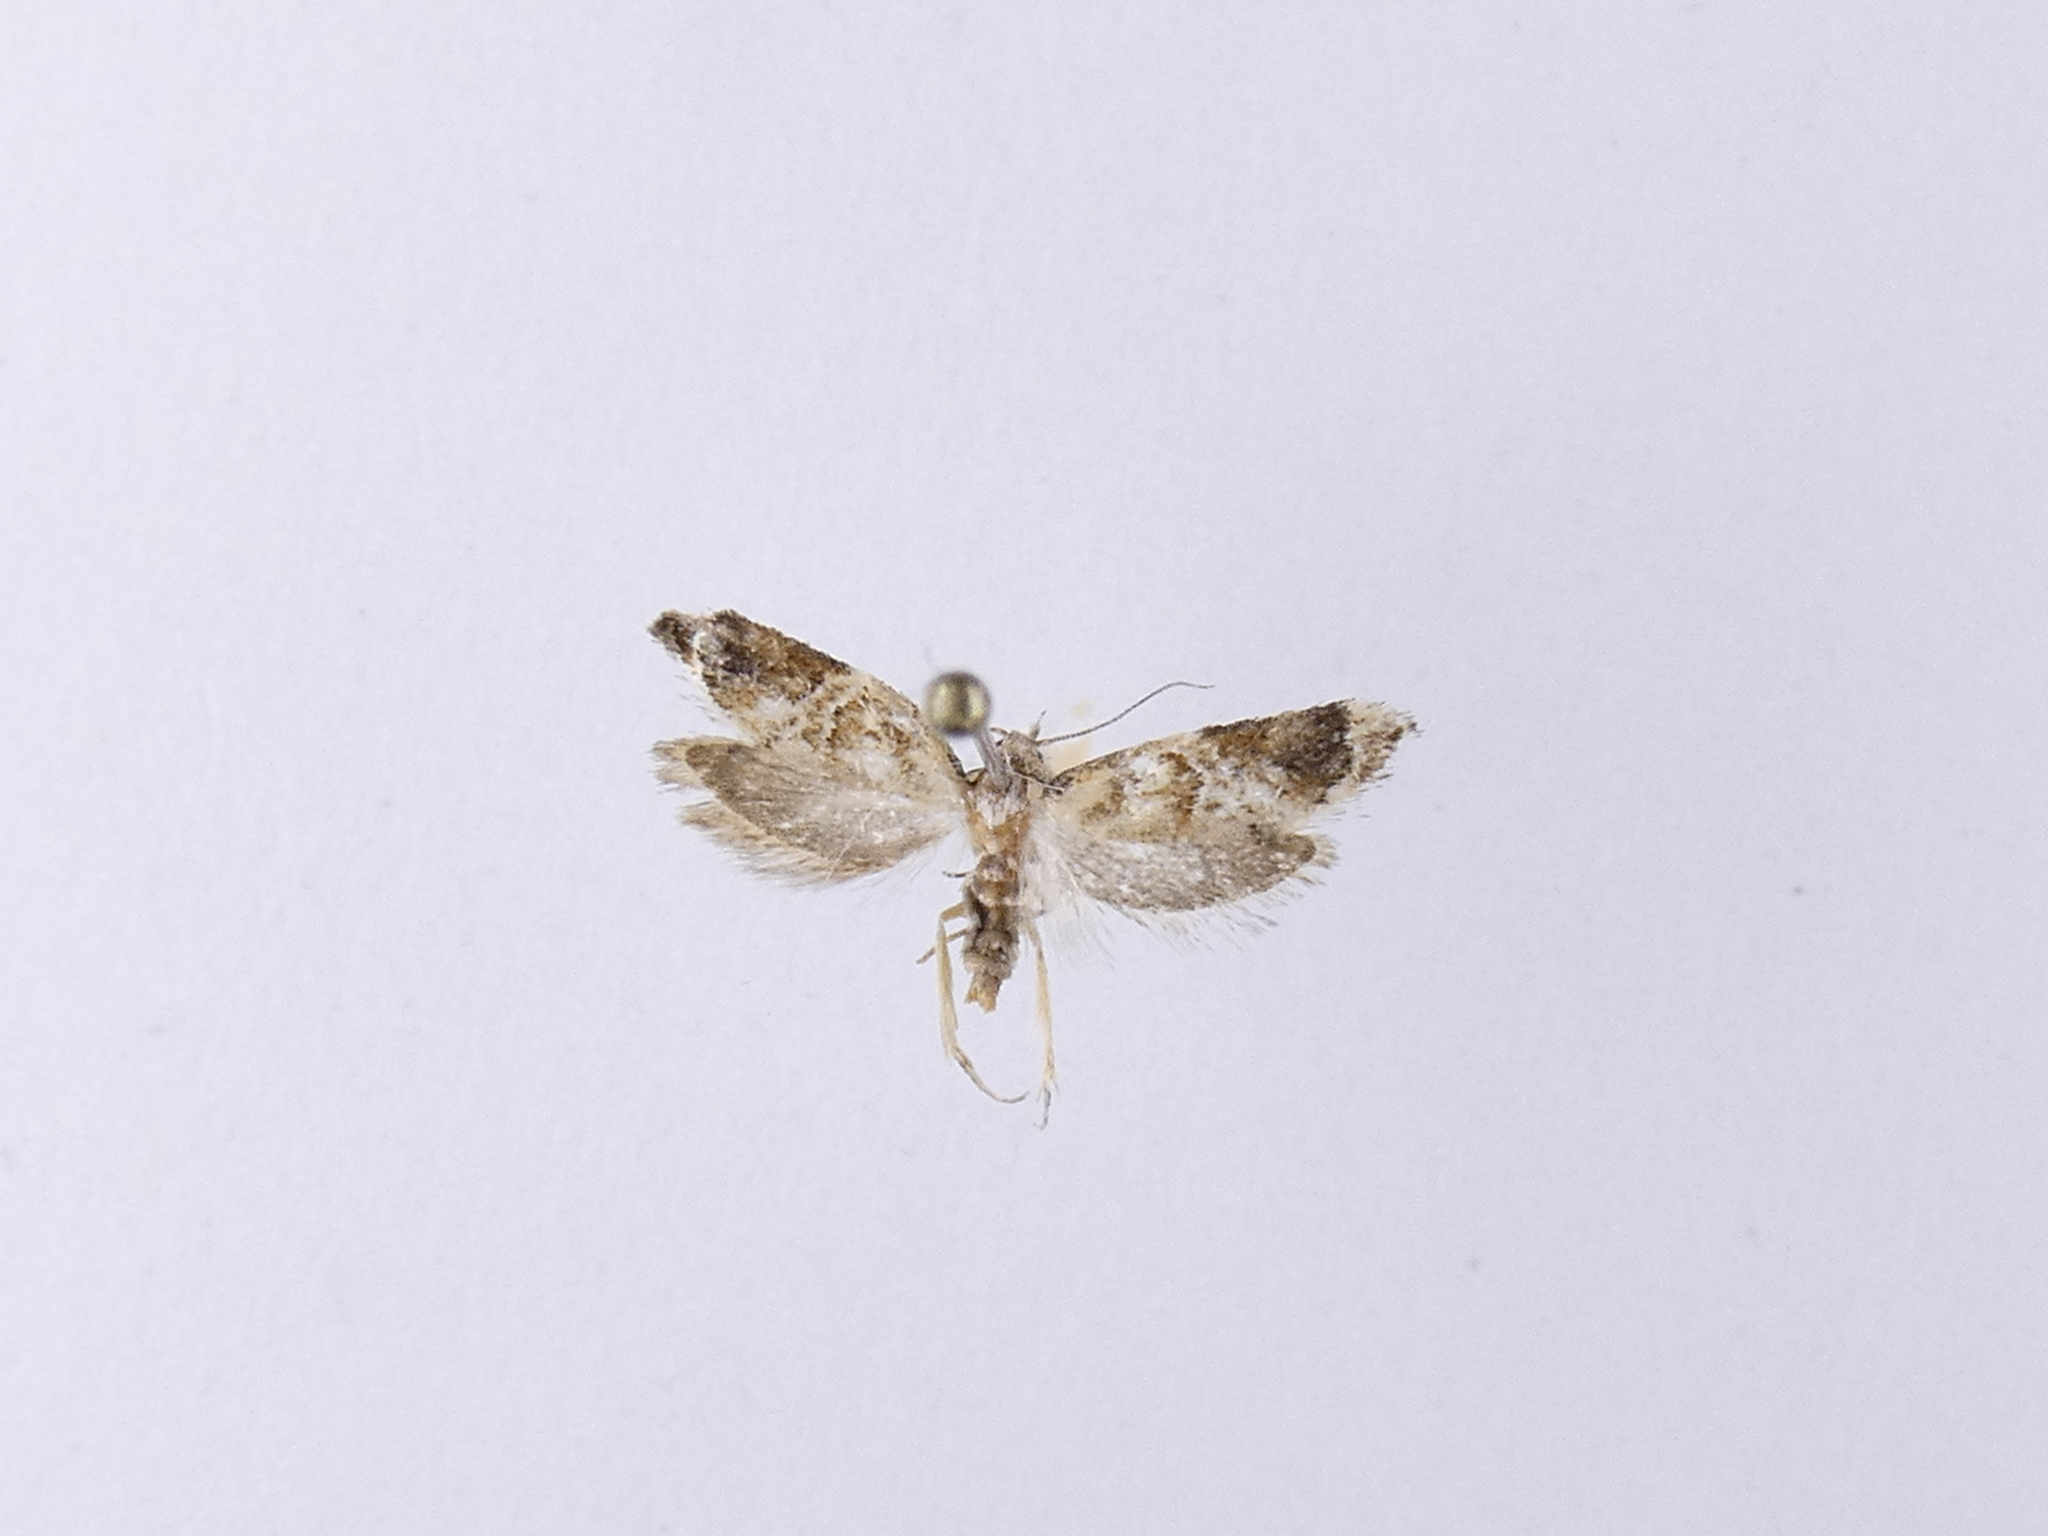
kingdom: Animalia
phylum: Arthropoda
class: Insecta
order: Lepidoptera
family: Oecophoridae
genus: Trachypepla
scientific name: Trachypepla aspidephora
